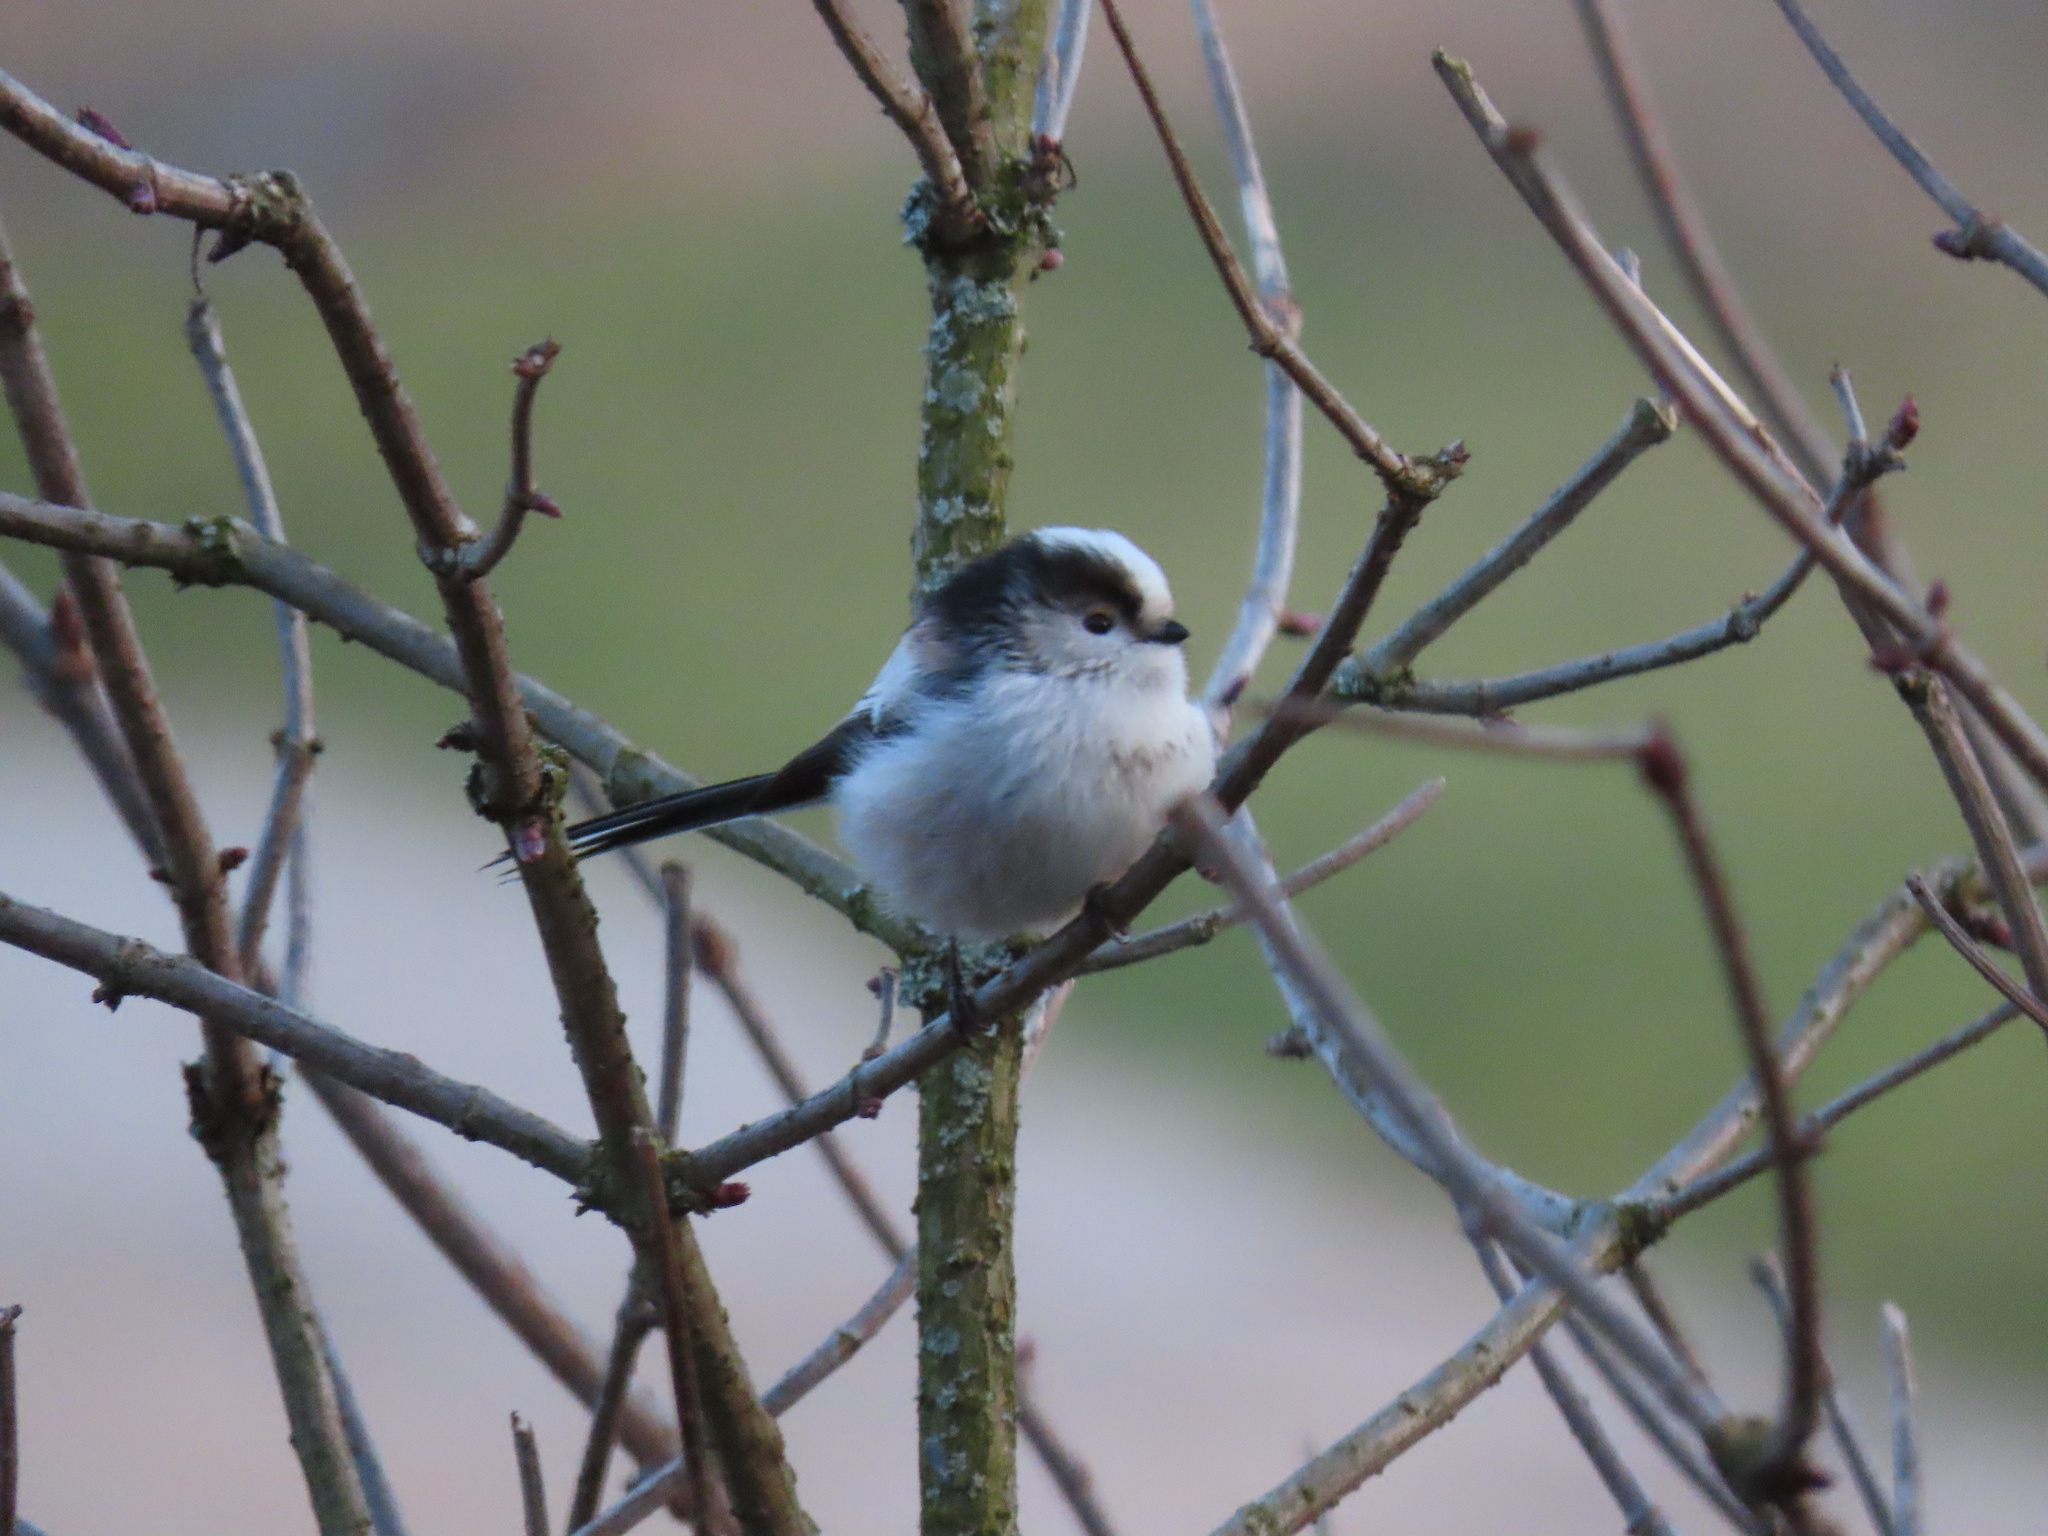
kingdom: Animalia
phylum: Chordata
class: Aves
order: Passeriformes
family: Aegithalidae
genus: Aegithalos
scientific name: Aegithalos caudatus
